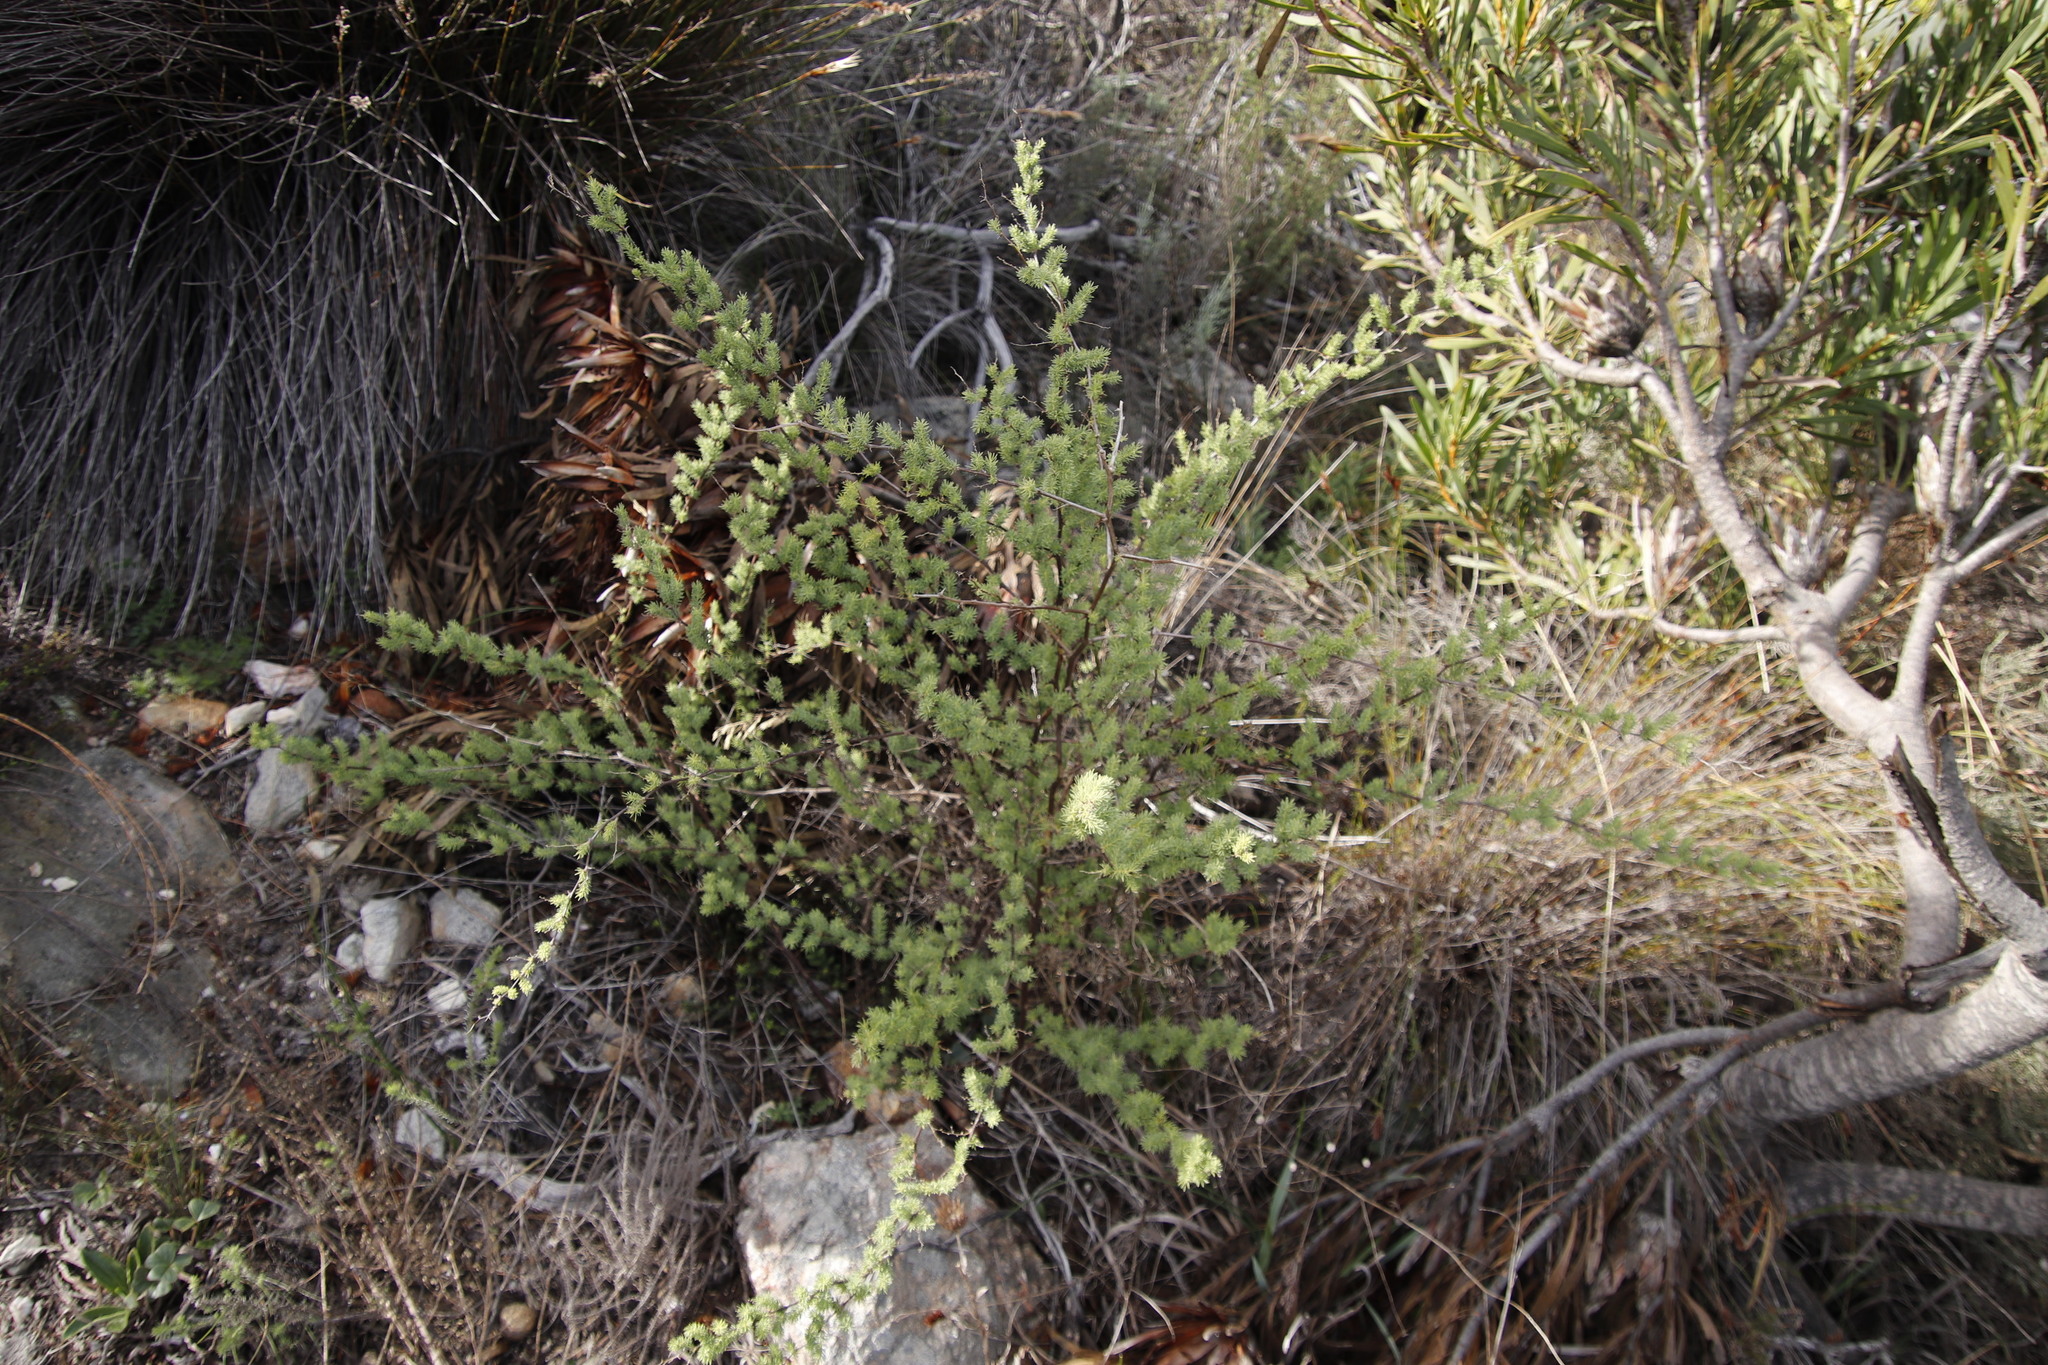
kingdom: Plantae
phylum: Tracheophyta
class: Liliopsida
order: Asparagales
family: Asparagaceae
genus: Asparagus
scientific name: Asparagus rubicundus
